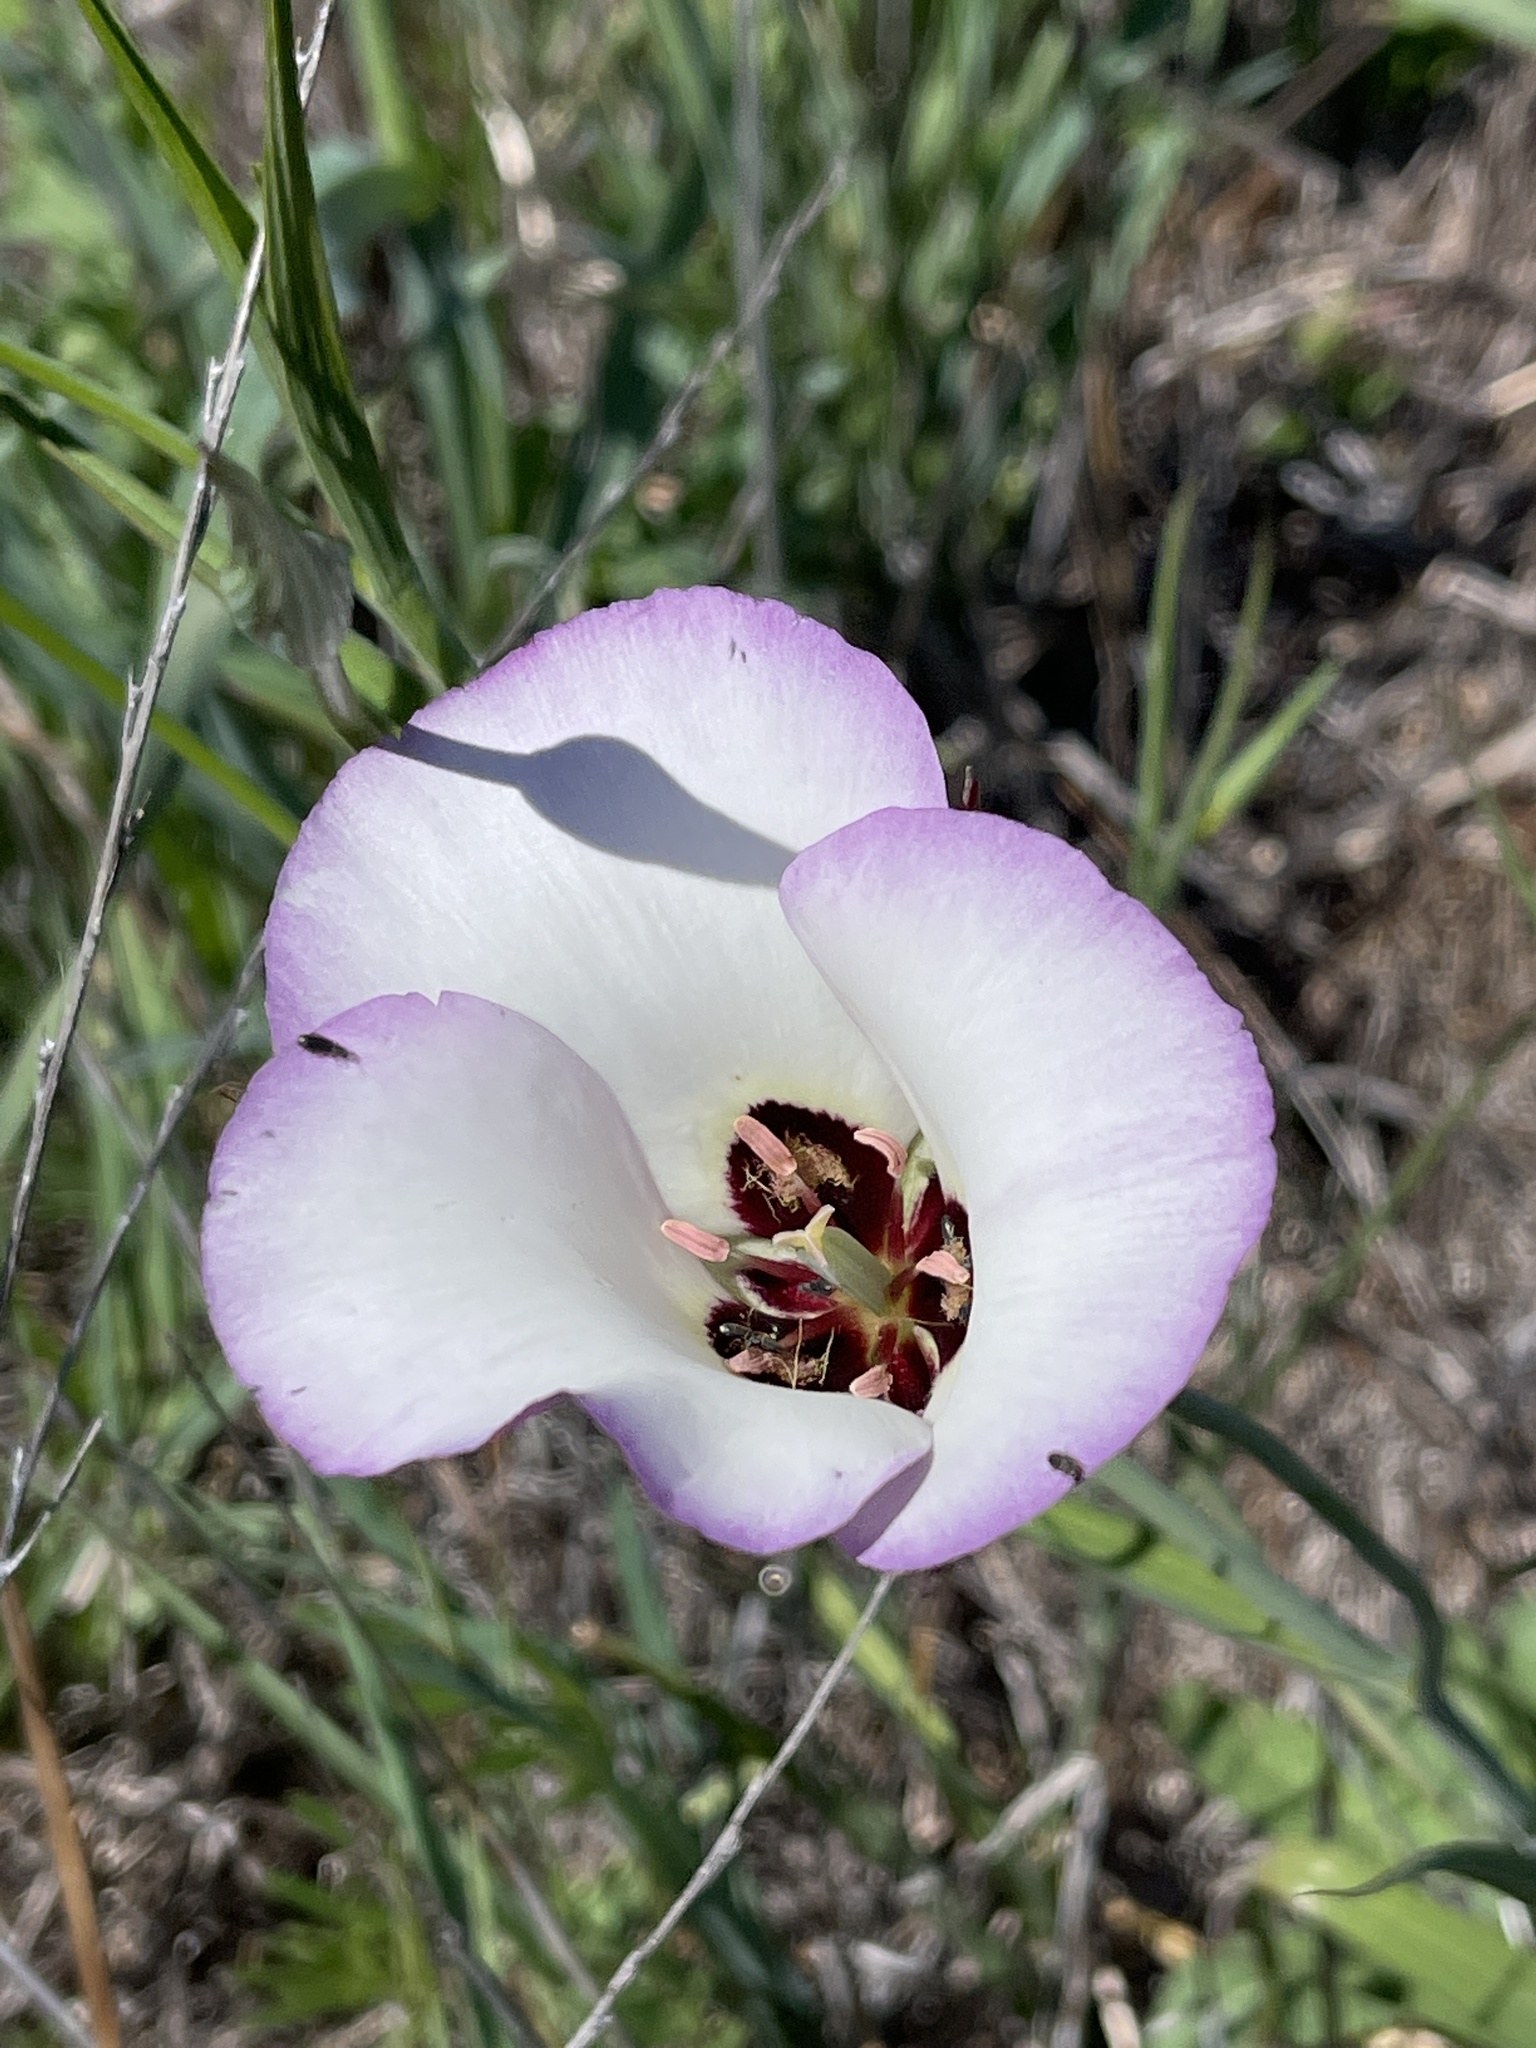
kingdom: Plantae
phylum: Tracheophyta
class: Liliopsida
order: Liliales
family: Liliaceae
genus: Calochortus
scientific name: Calochortus catalinae
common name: Catalina mariposa-lily
